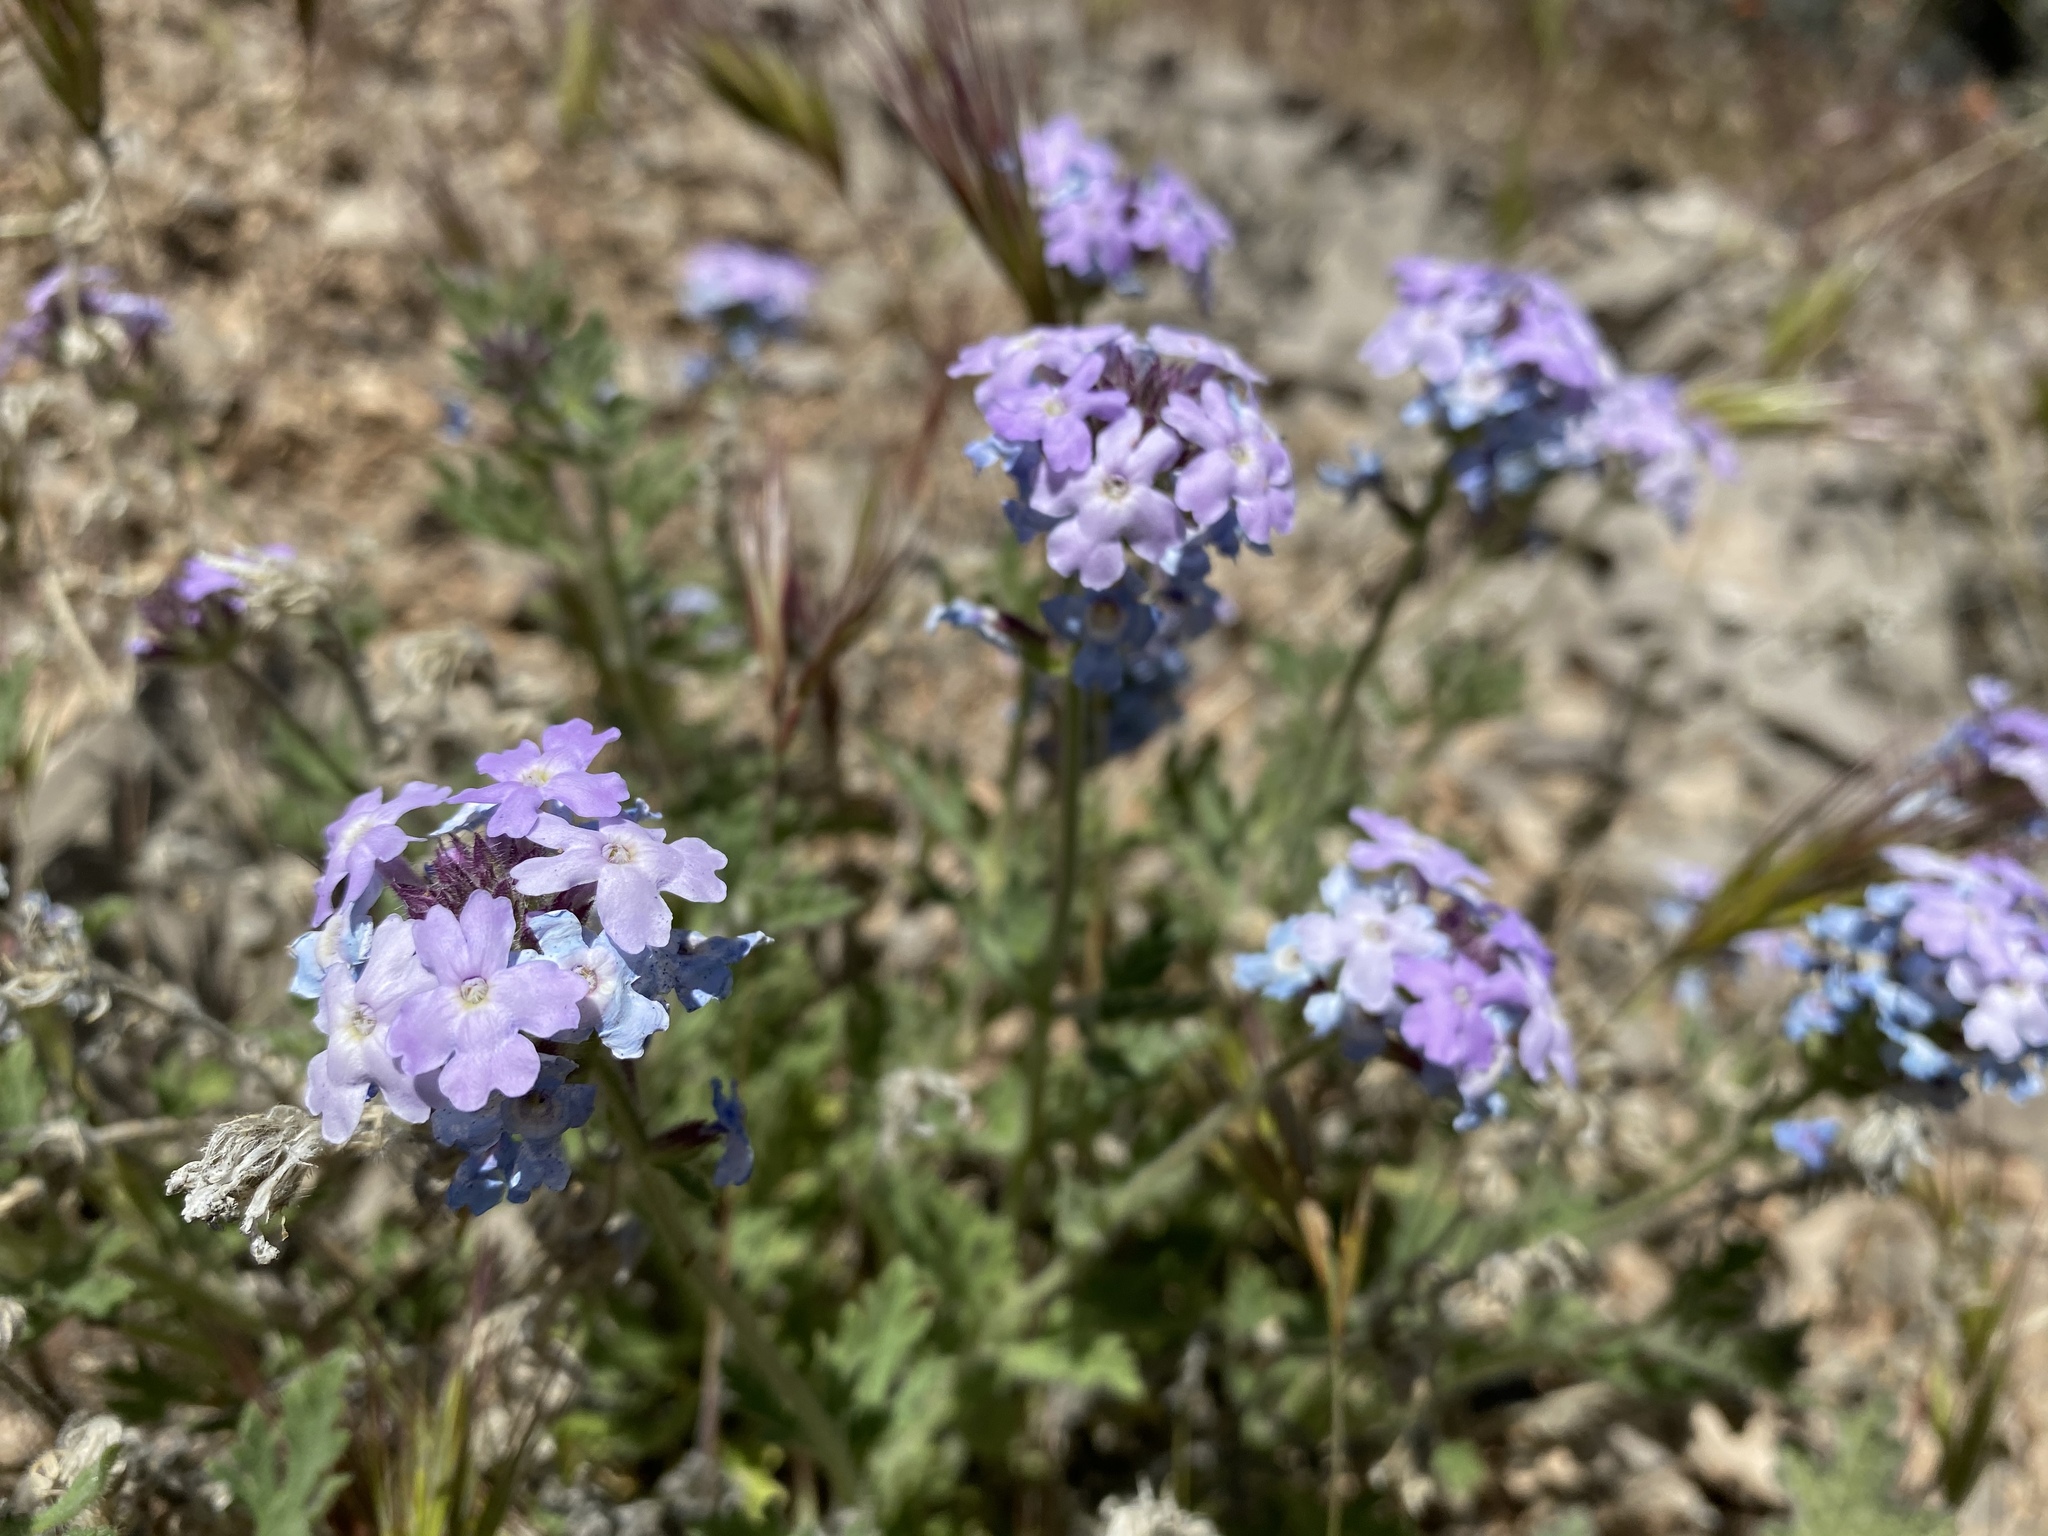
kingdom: Plantae
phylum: Tracheophyta
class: Magnoliopsida
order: Lamiales
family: Verbenaceae
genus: Verbena
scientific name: Verbena gooddingii
